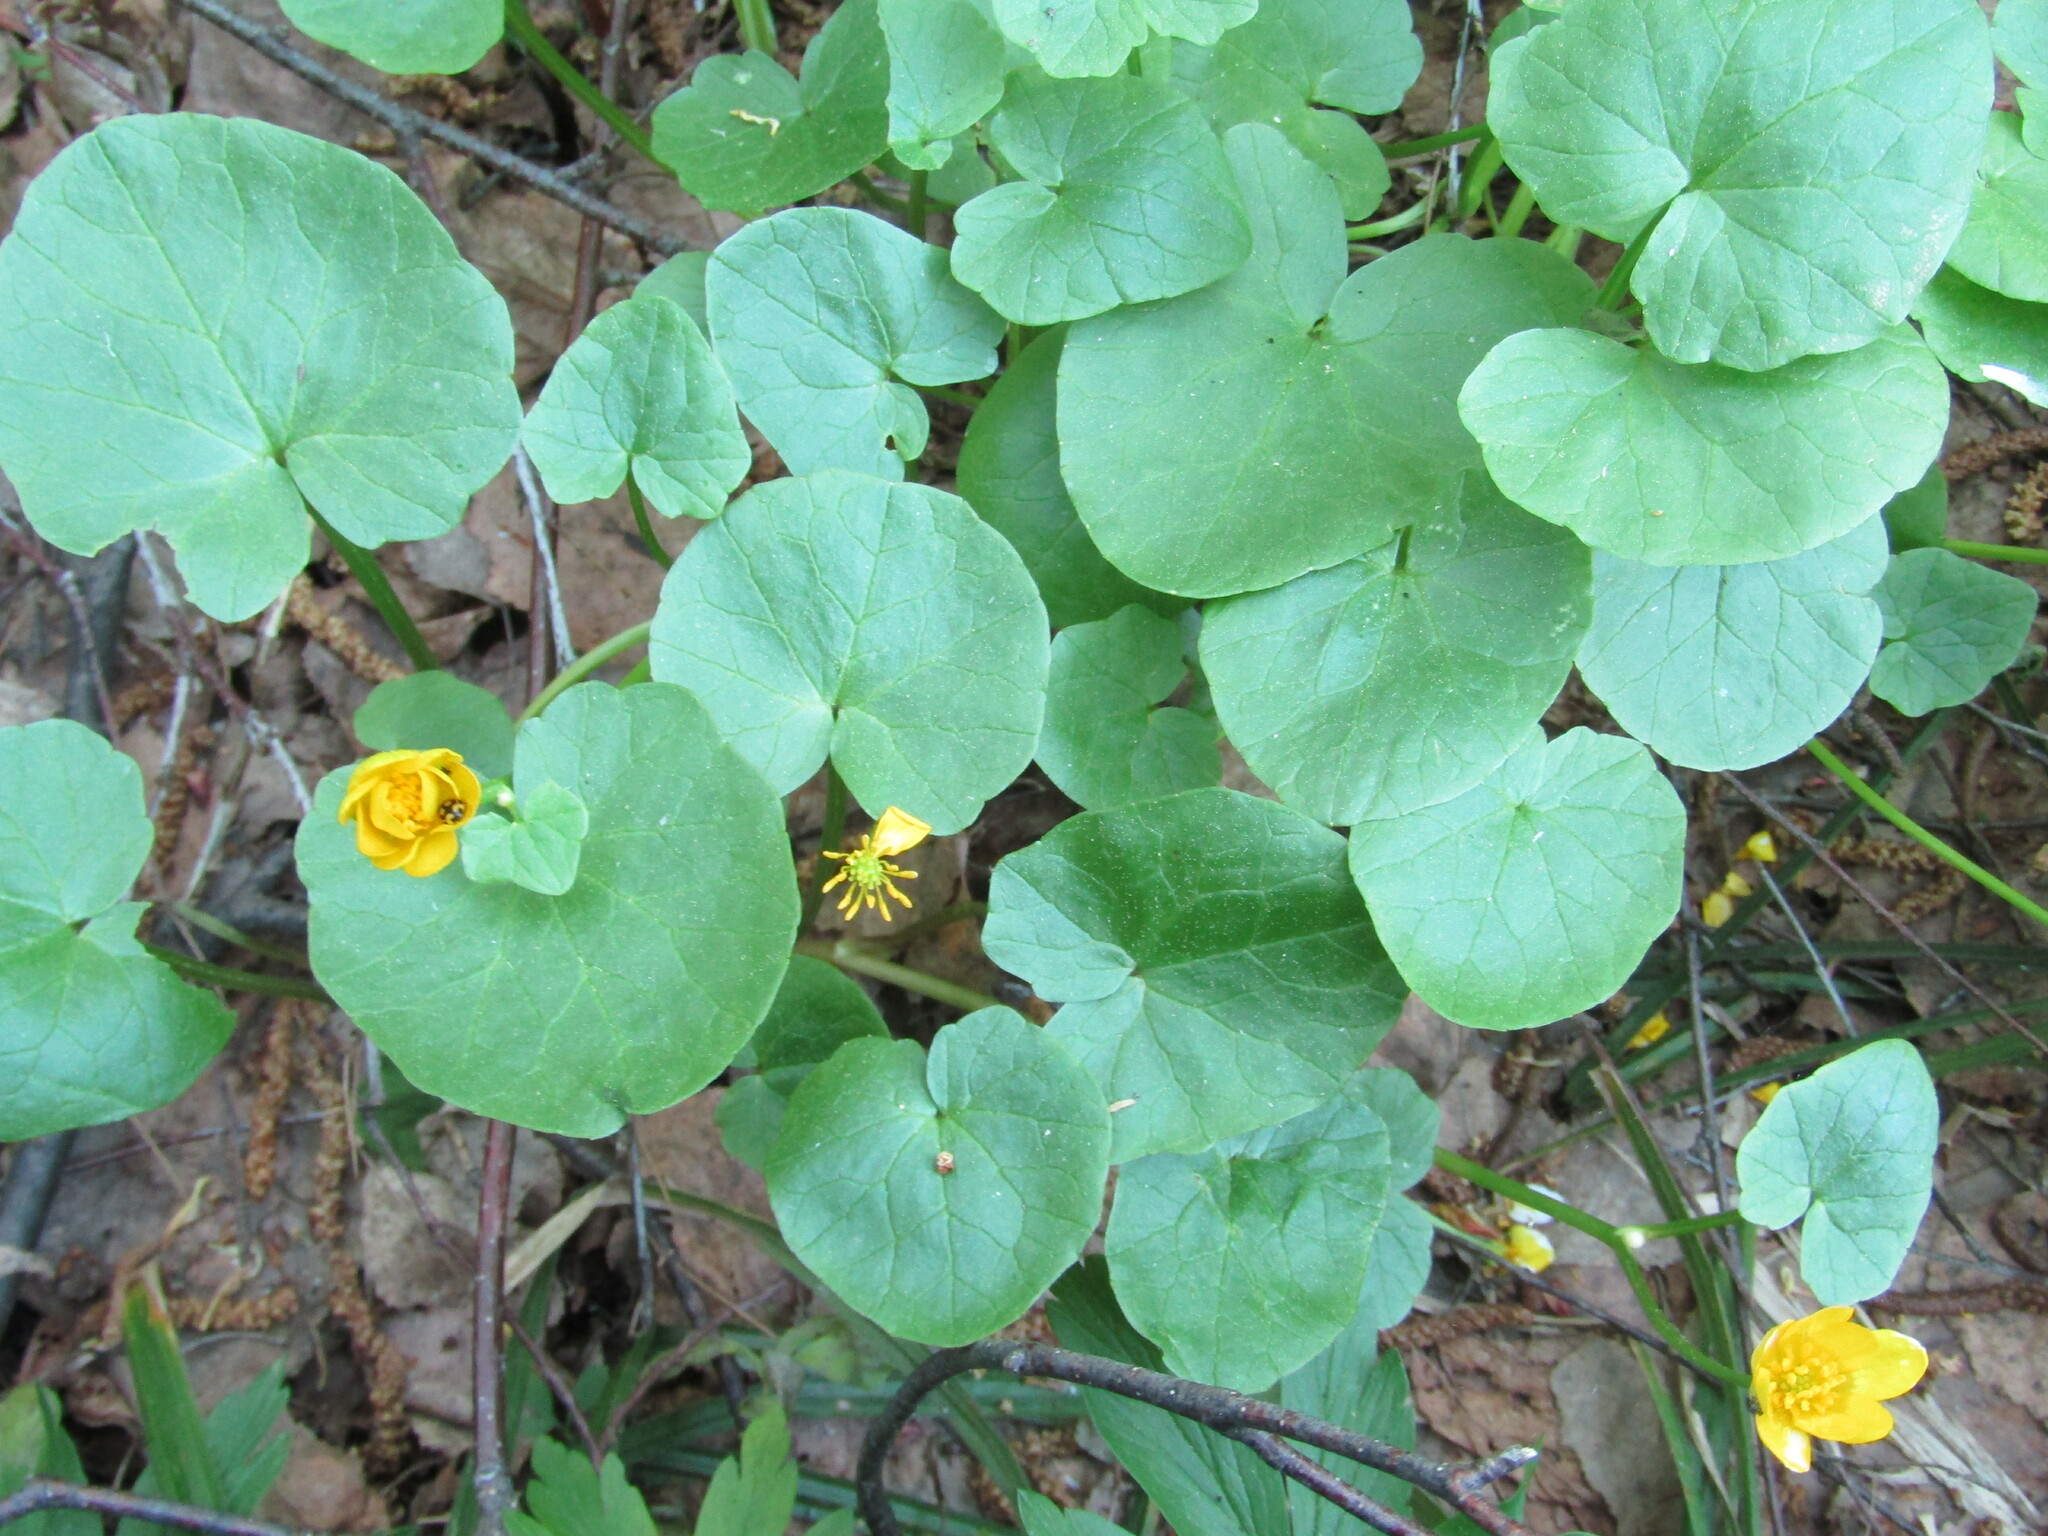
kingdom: Plantae
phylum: Tracheophyta
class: Magnoliopsida
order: Ranunculales
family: Ranunculaceae
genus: Ficaria
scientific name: Ficaria verna
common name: Lesser celandine
